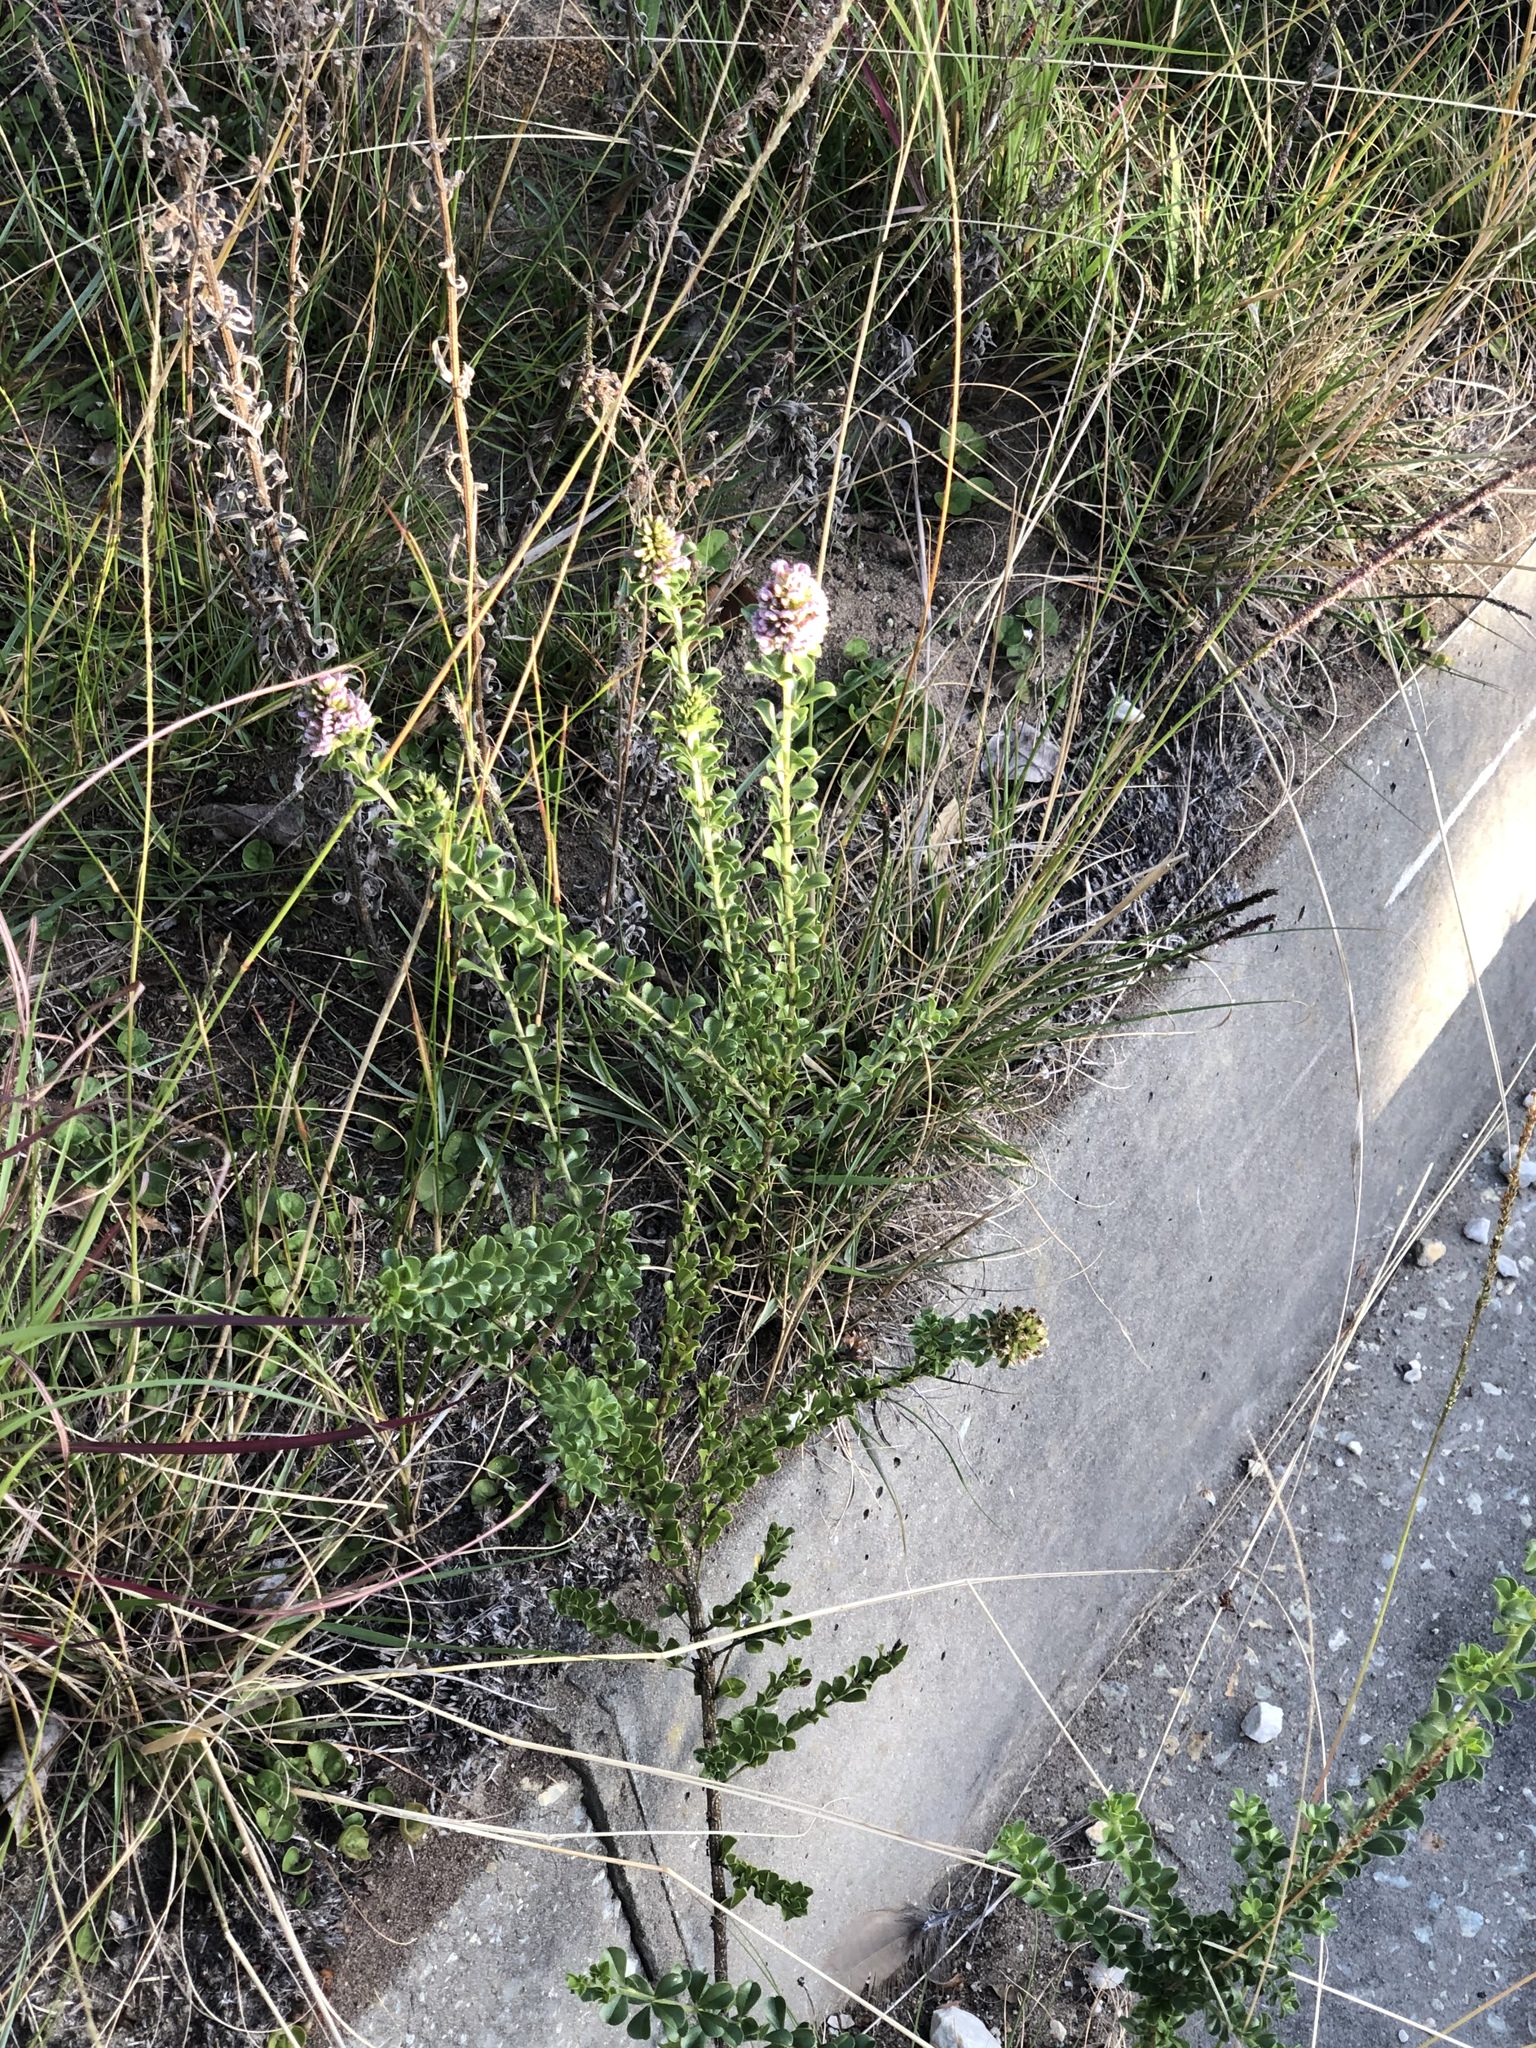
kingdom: Plantae
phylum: Tracheophyta
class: Magnoliopsida
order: Fabales
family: Fabaceae
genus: Psoralea
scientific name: Psoralea stachyera
